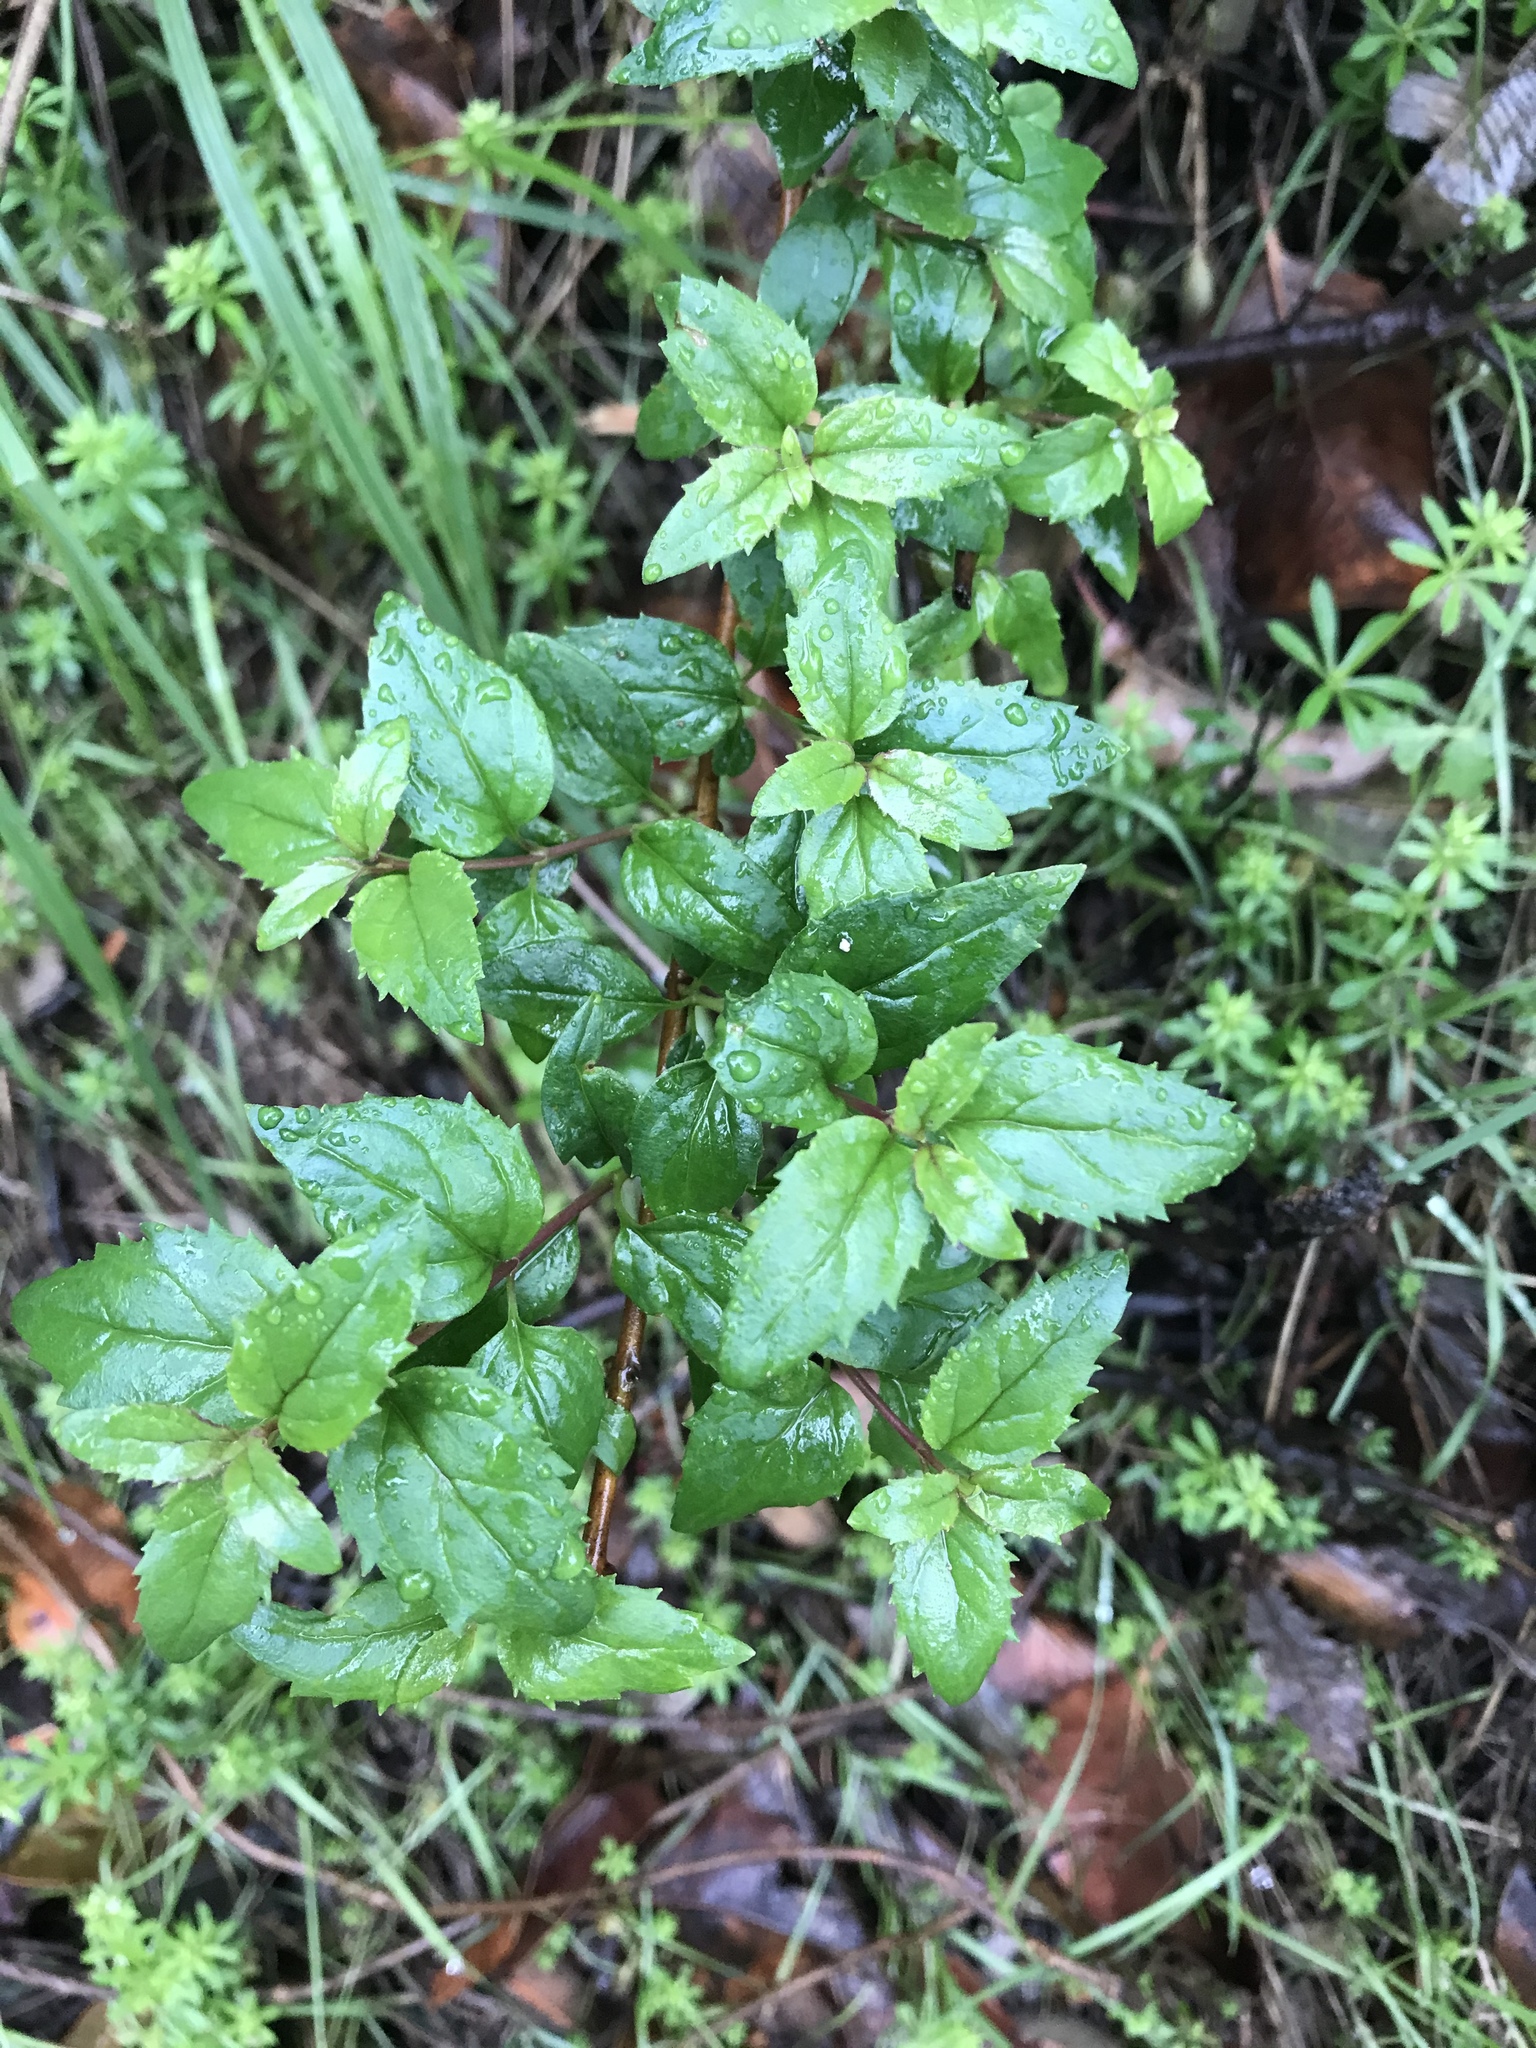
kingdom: Plantae
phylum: Tracheophyta
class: Magnoliopsida
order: Lamiales
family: Plantaginaceae
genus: Keckiella
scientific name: Keckiella cordifolia
